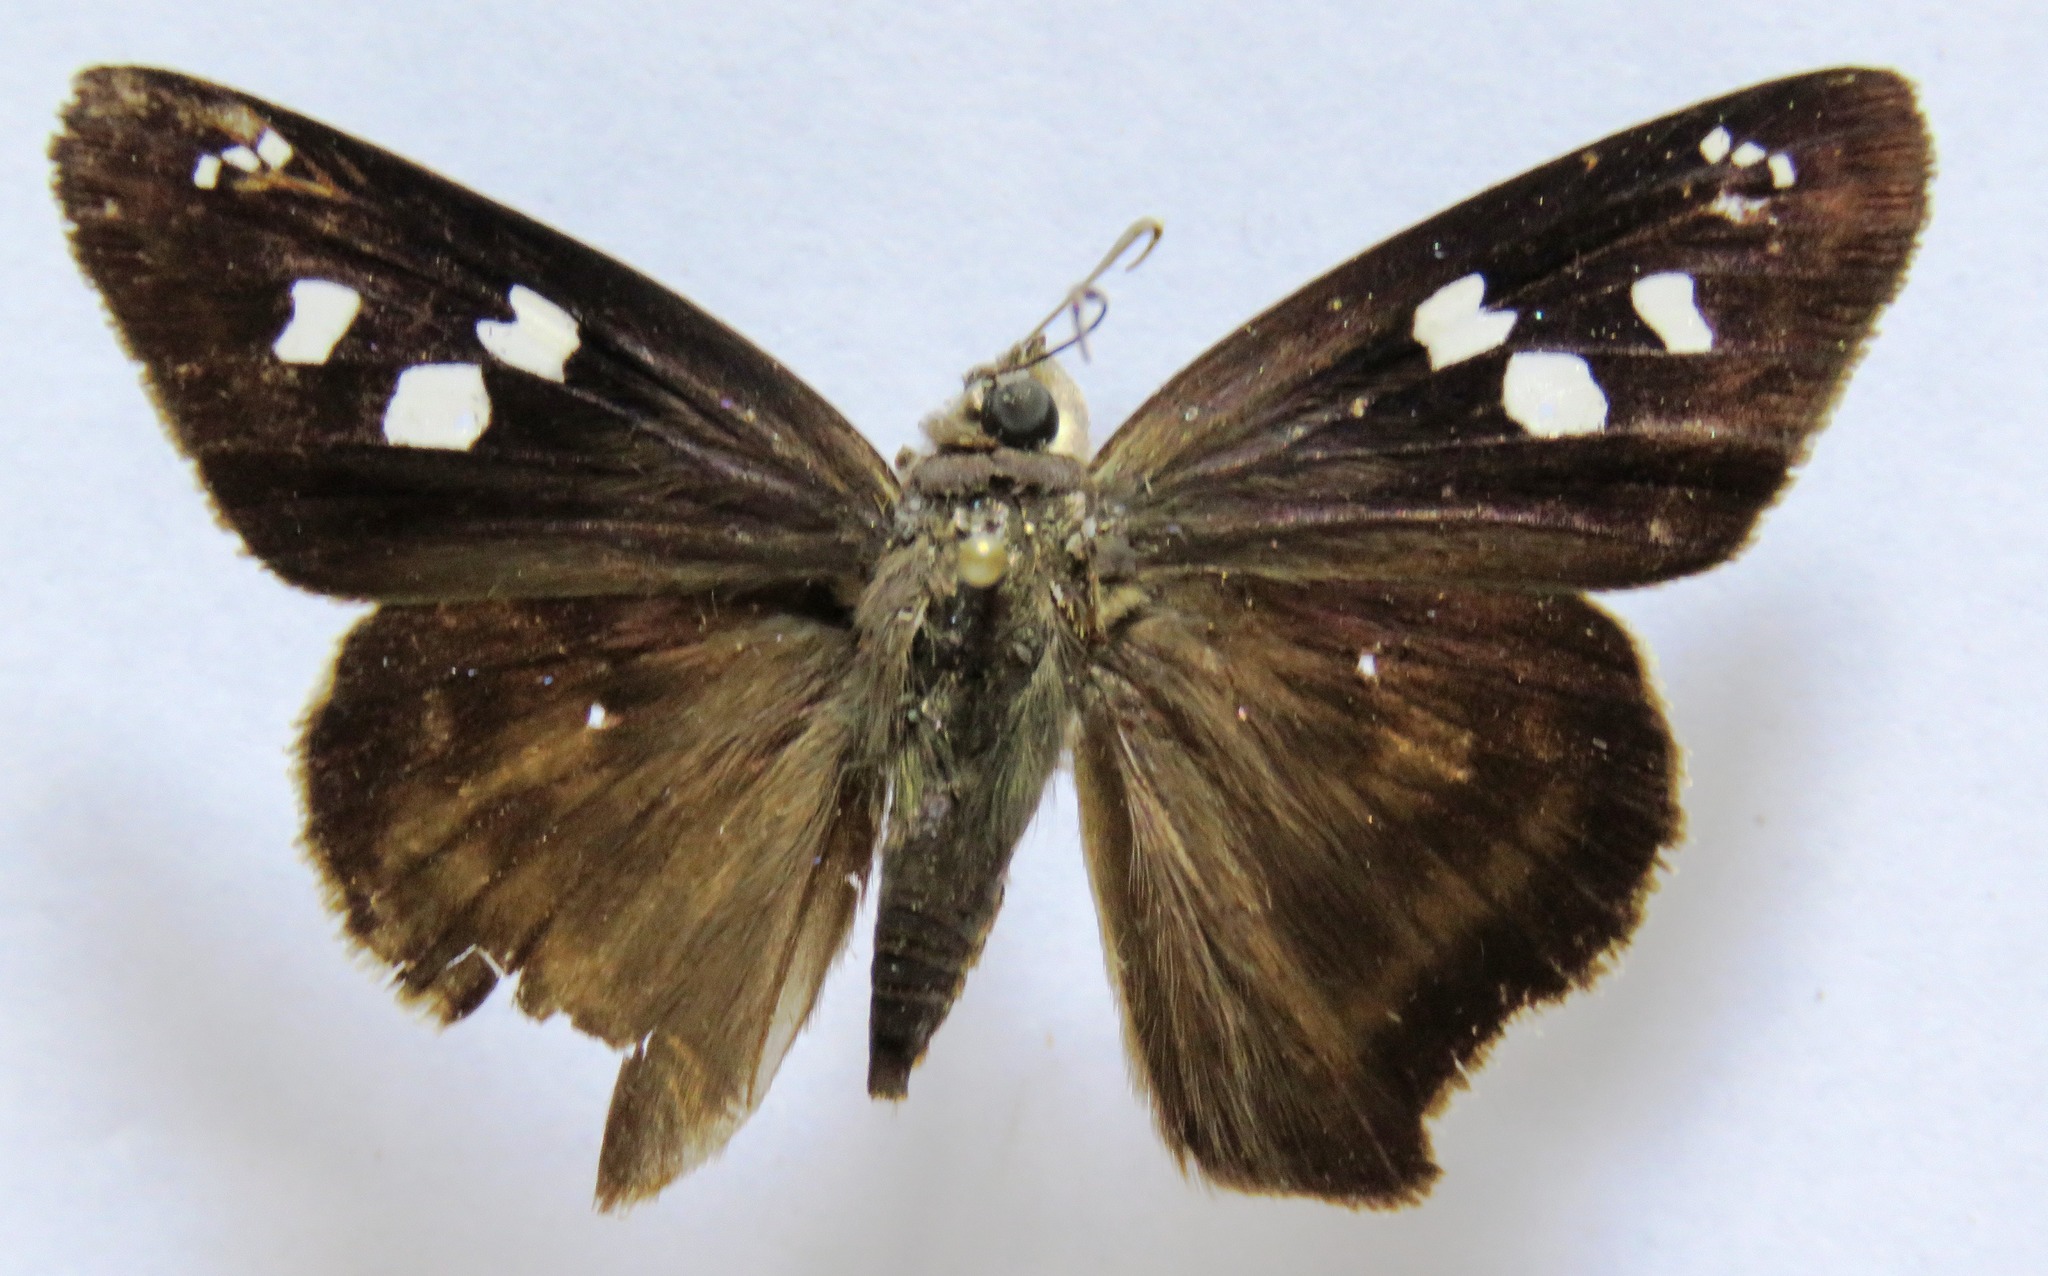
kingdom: Animalia
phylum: Arthropoda
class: Insecta
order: Lepidoptera
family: Hesperiidae
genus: Polygonus
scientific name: Polygonus leo
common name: Hammoch skipper
